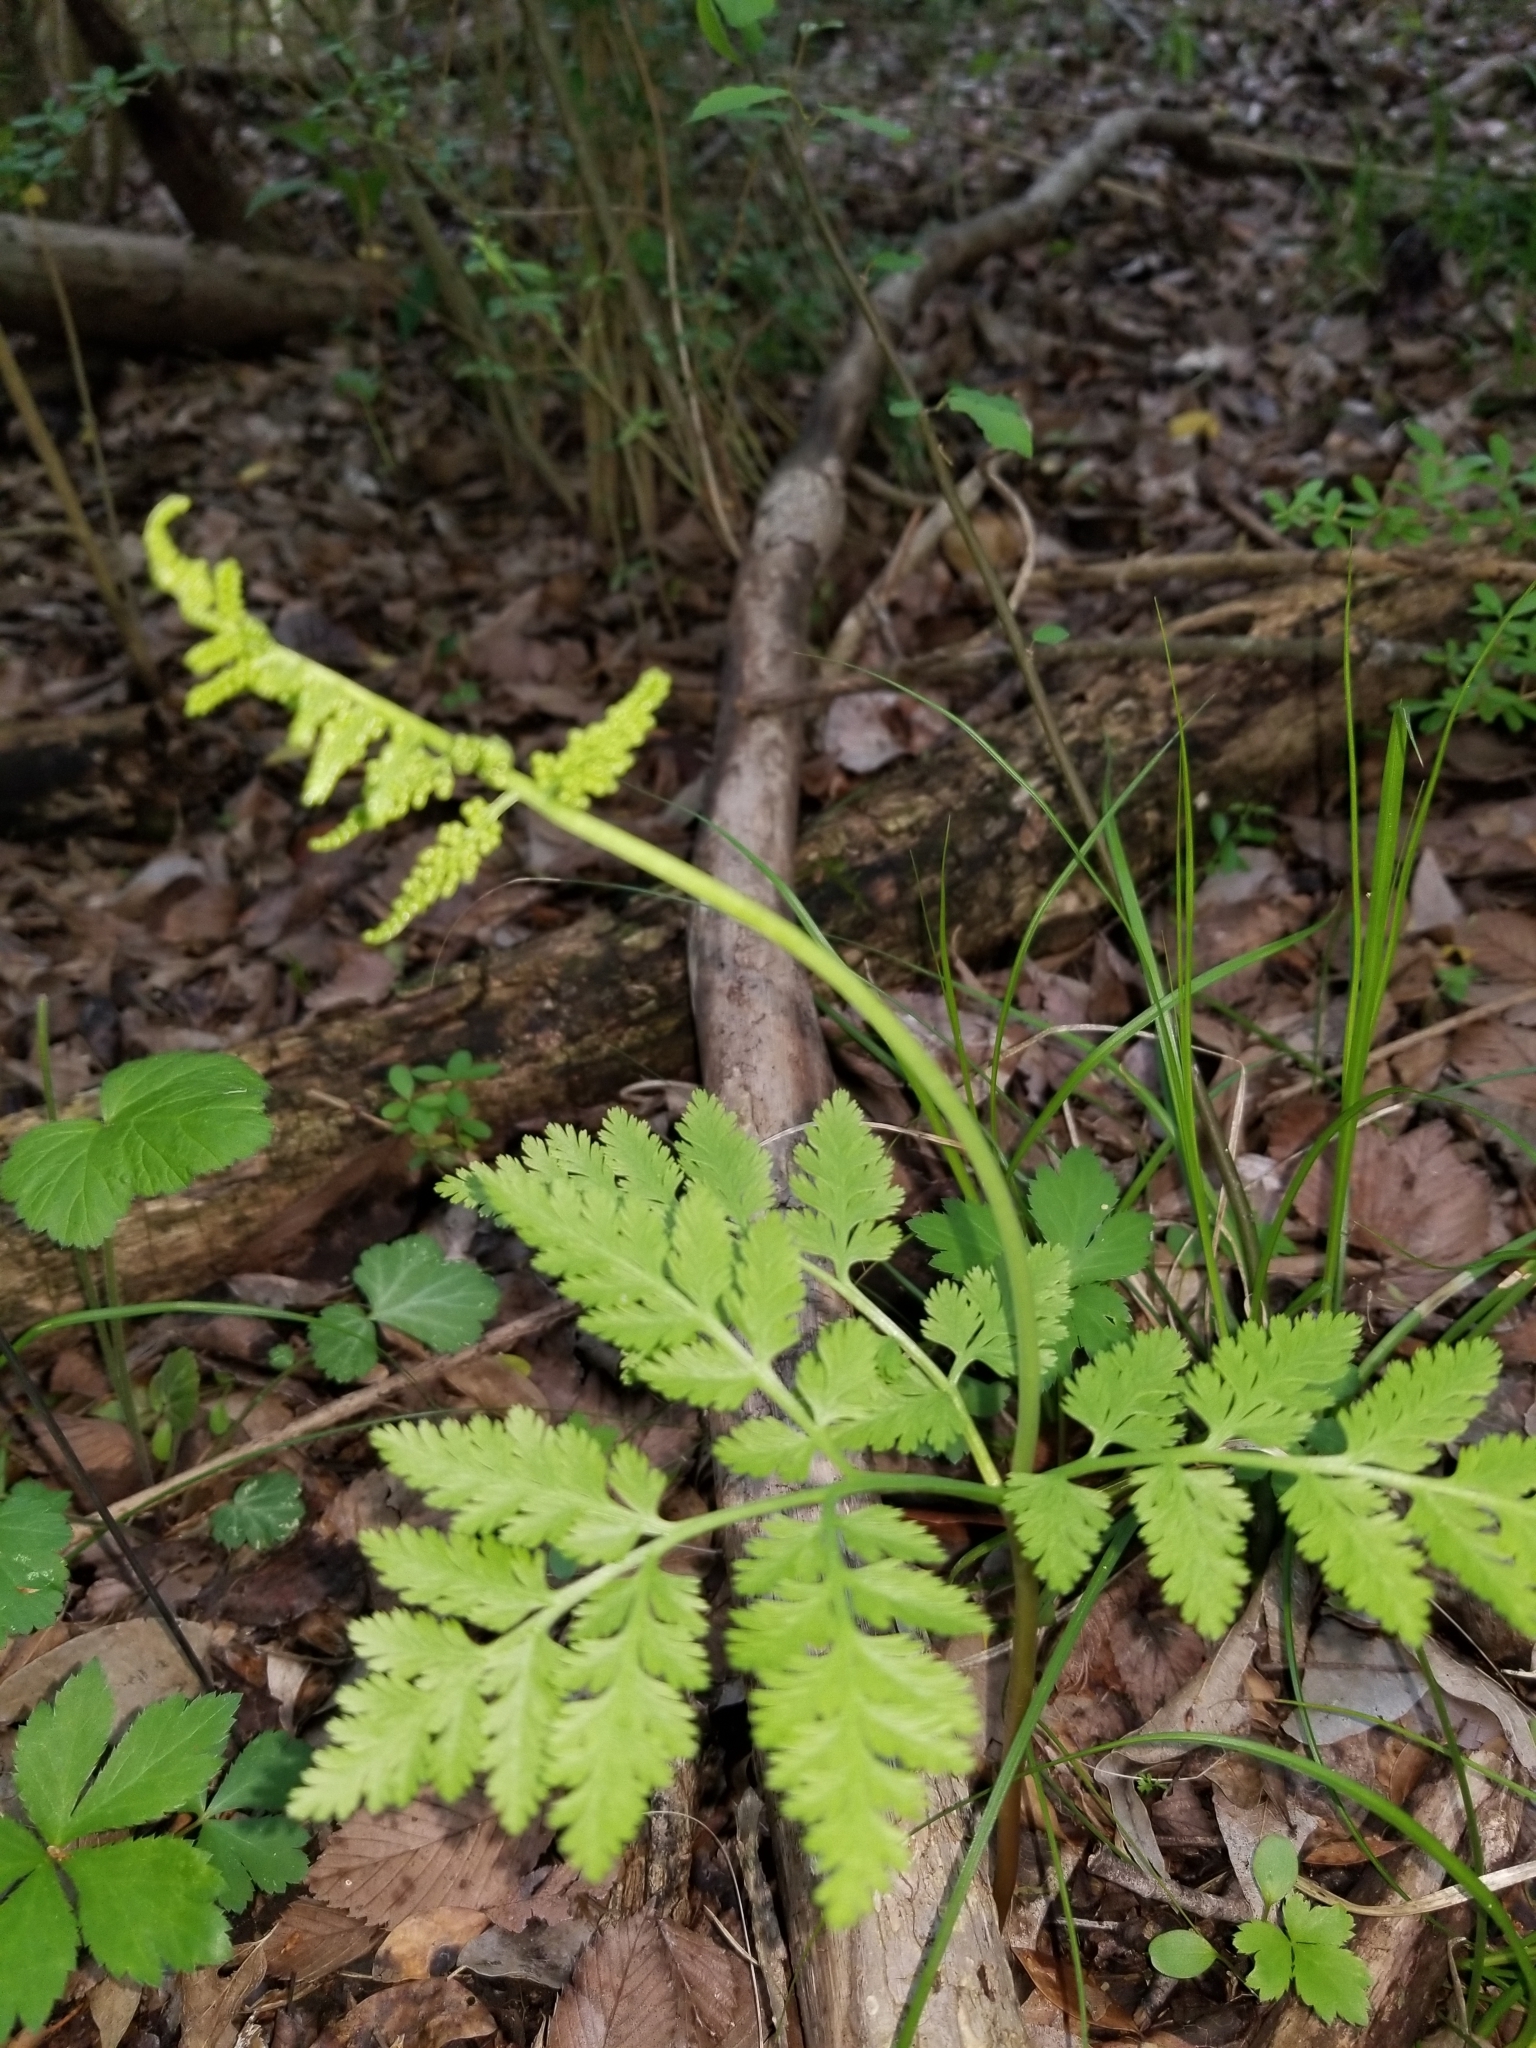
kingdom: Plantae
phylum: Tracheophyta
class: Polypodiopsida
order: Ophioglossales
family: Ophioglossaceae
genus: Botrypus
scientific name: Botrypus virginianus
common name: Common grapefern
